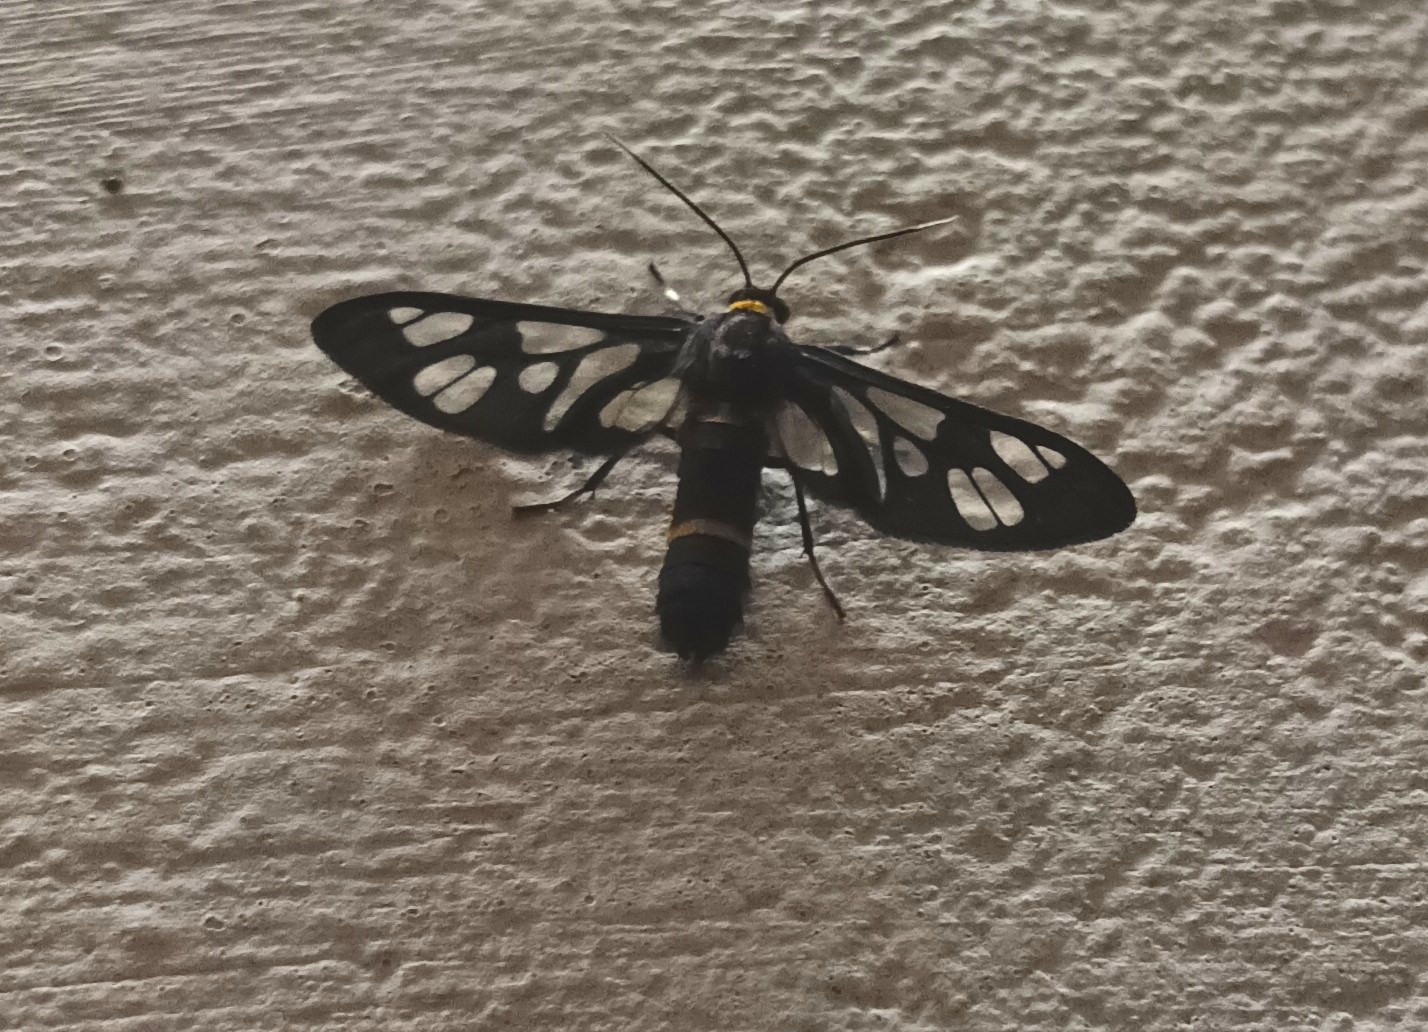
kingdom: Animalia
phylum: Arthropoda
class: Insecta
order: Lepidoptera
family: Erebidae
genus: Syntomoides
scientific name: Syntomoides imaon
